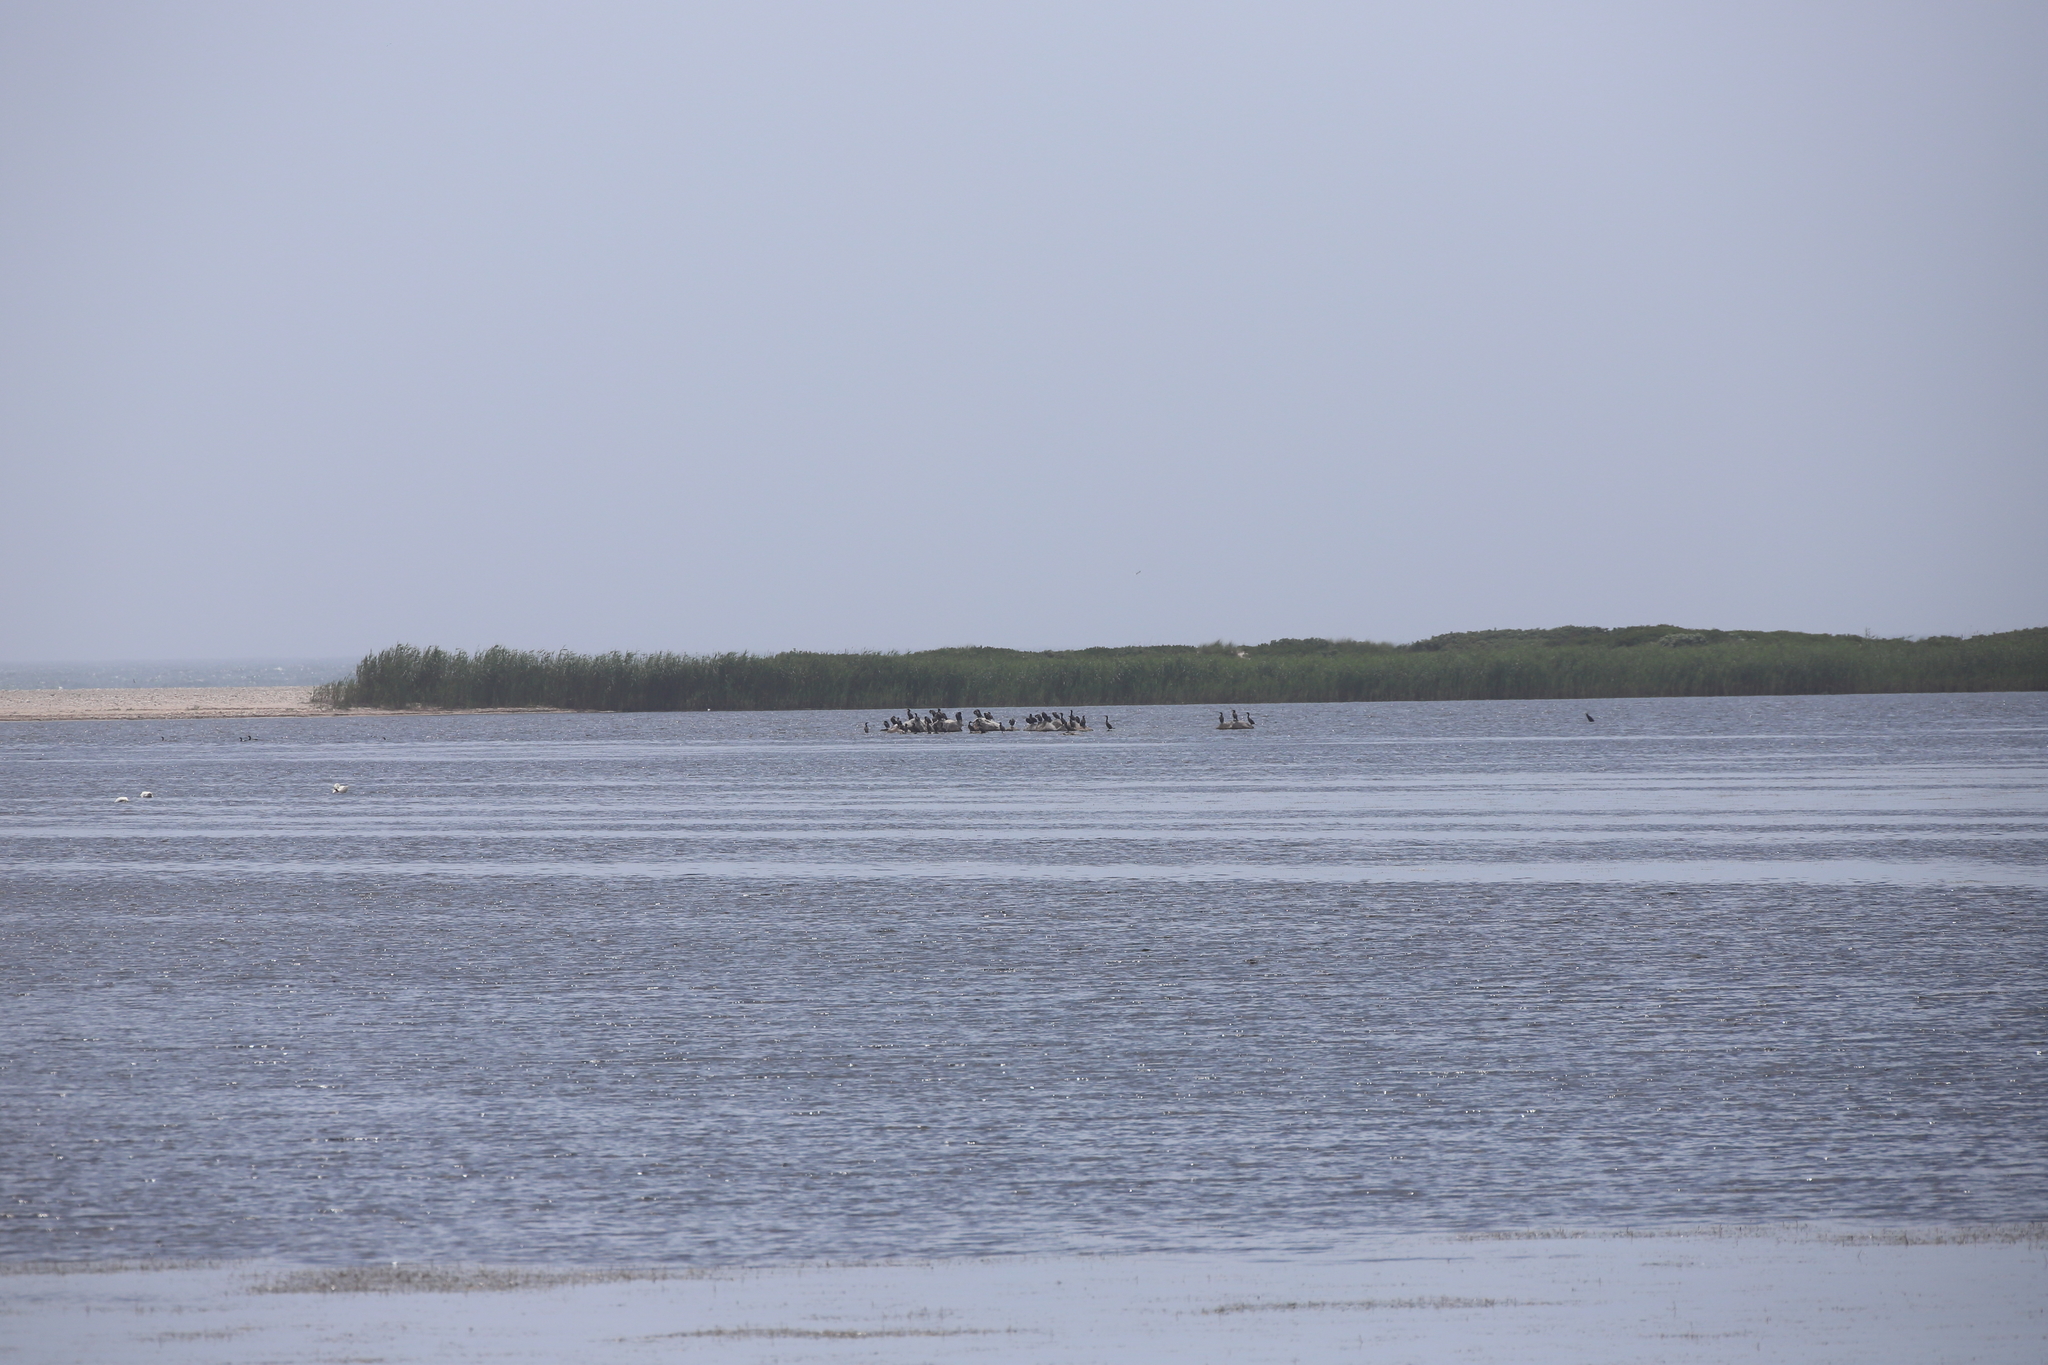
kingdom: Animalia
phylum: Chordata
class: Aves
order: Suliformes
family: Phalacrocoracidae
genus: Phalacrocorax
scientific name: Phalacrocorax auritus
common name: Double-crested cormorant
